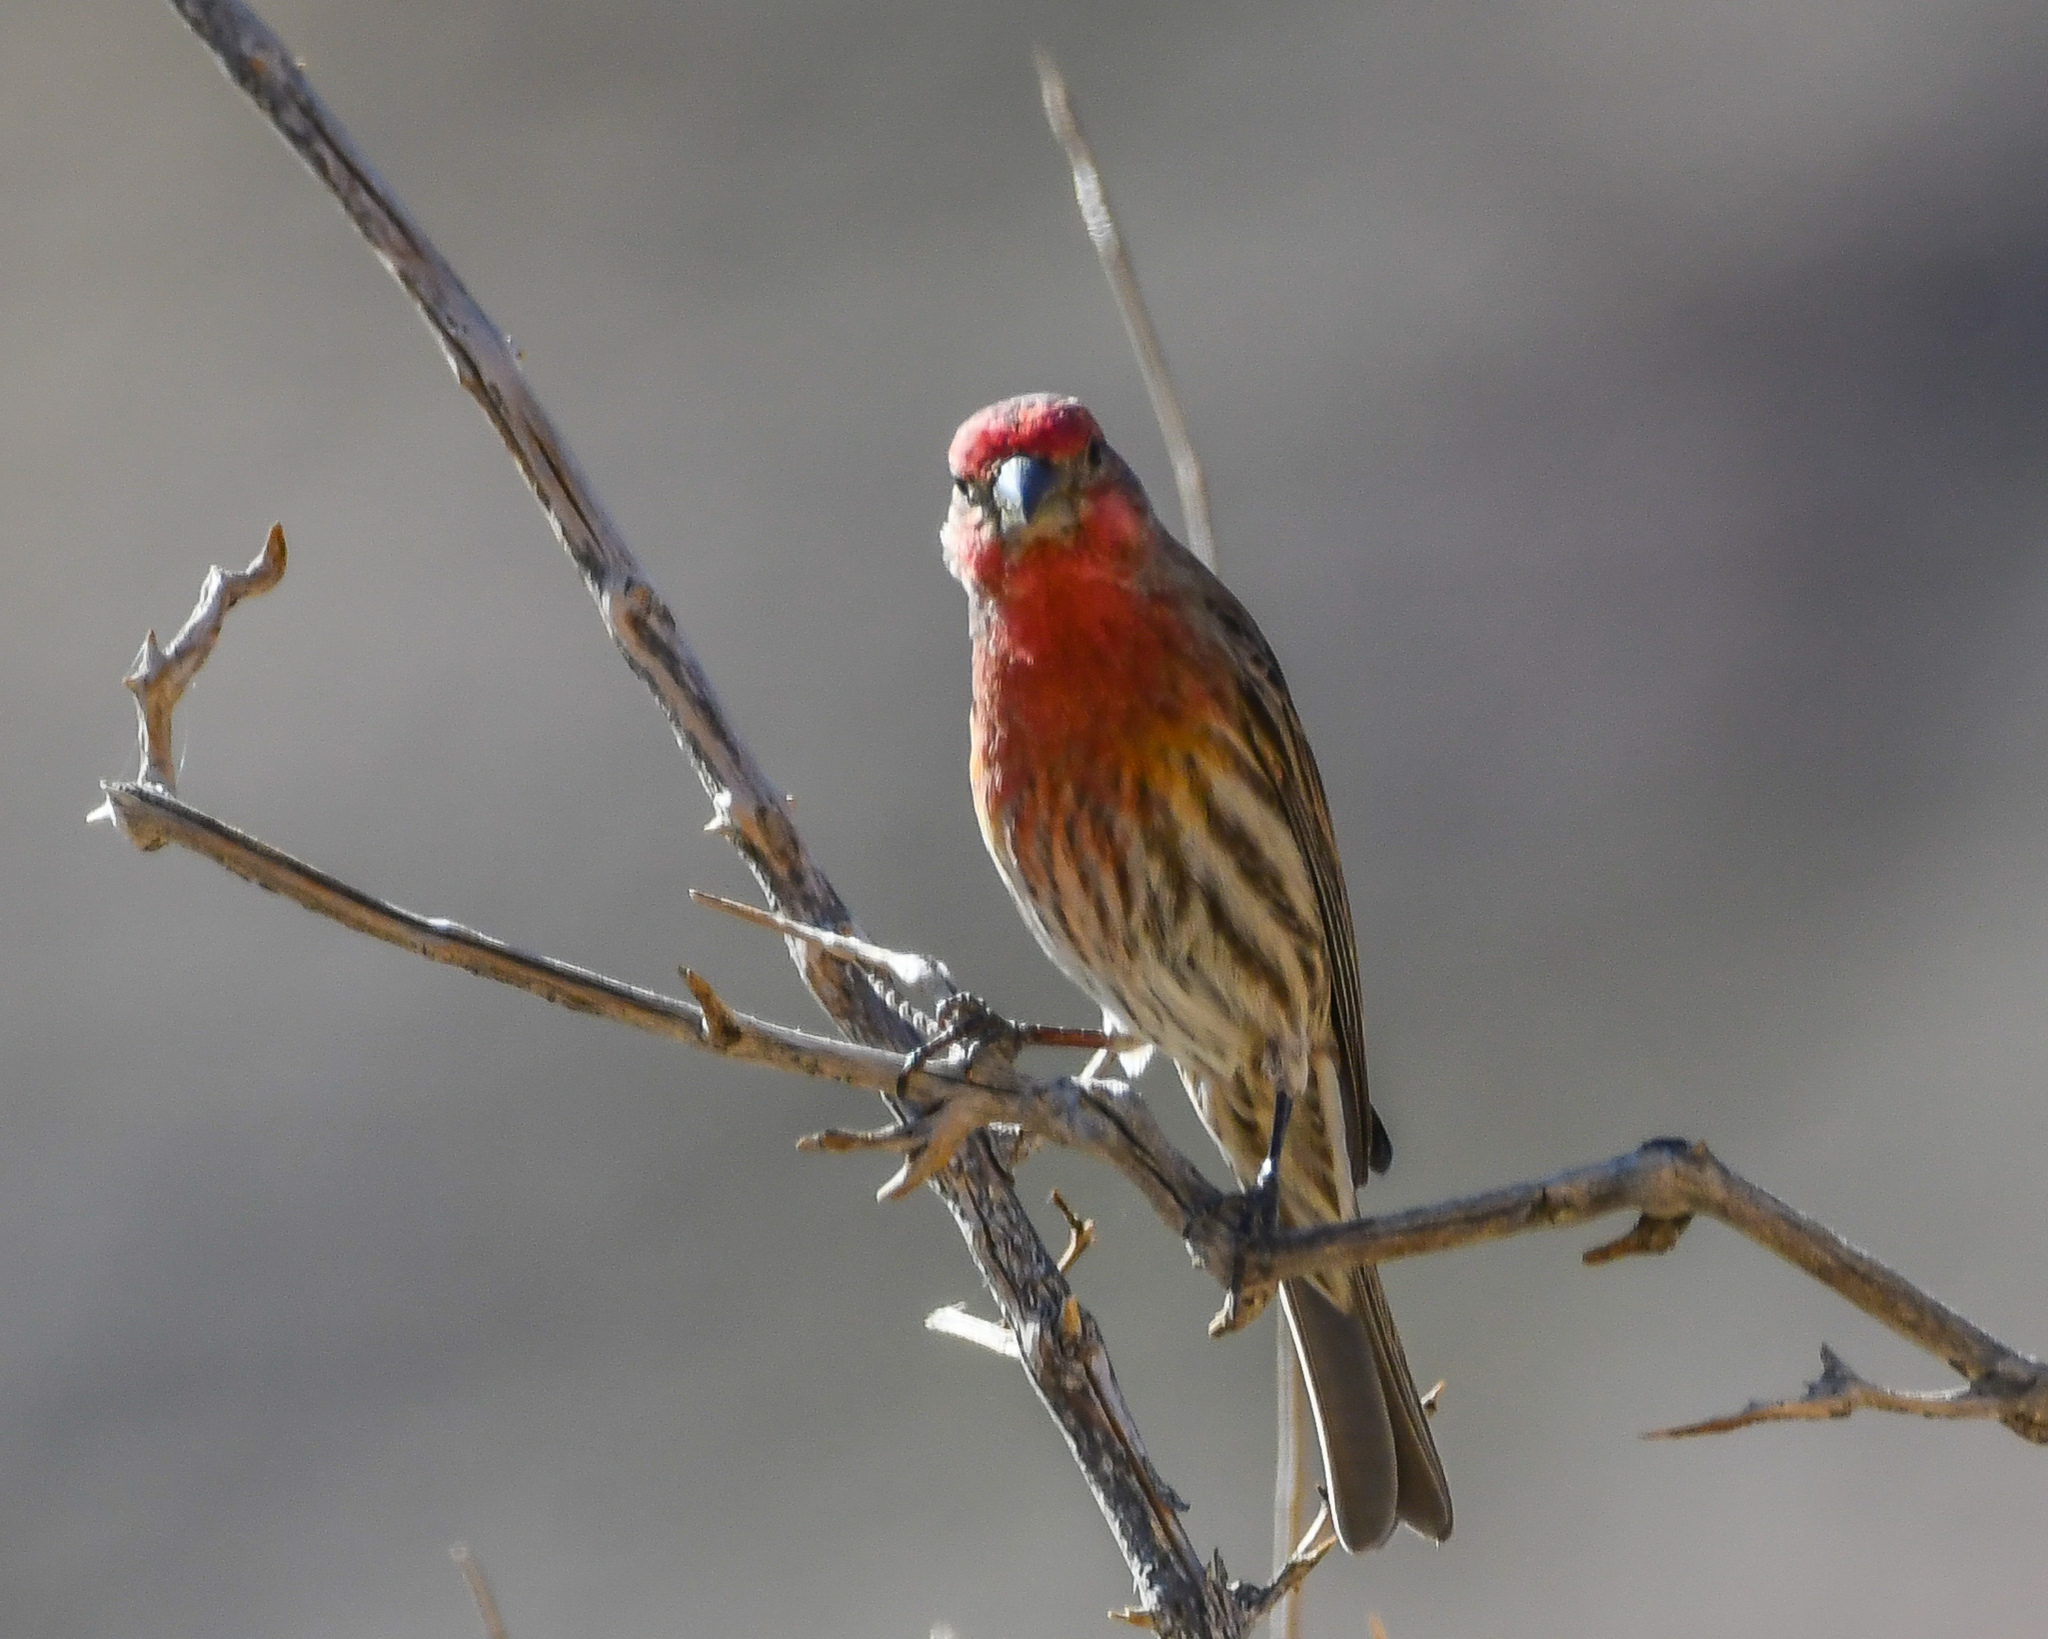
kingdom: Animalia
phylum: Chordata
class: Aves
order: Passeriformes
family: Fringillidae
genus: Haemorhous
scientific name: Haemorhous mexicanus
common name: House finch
